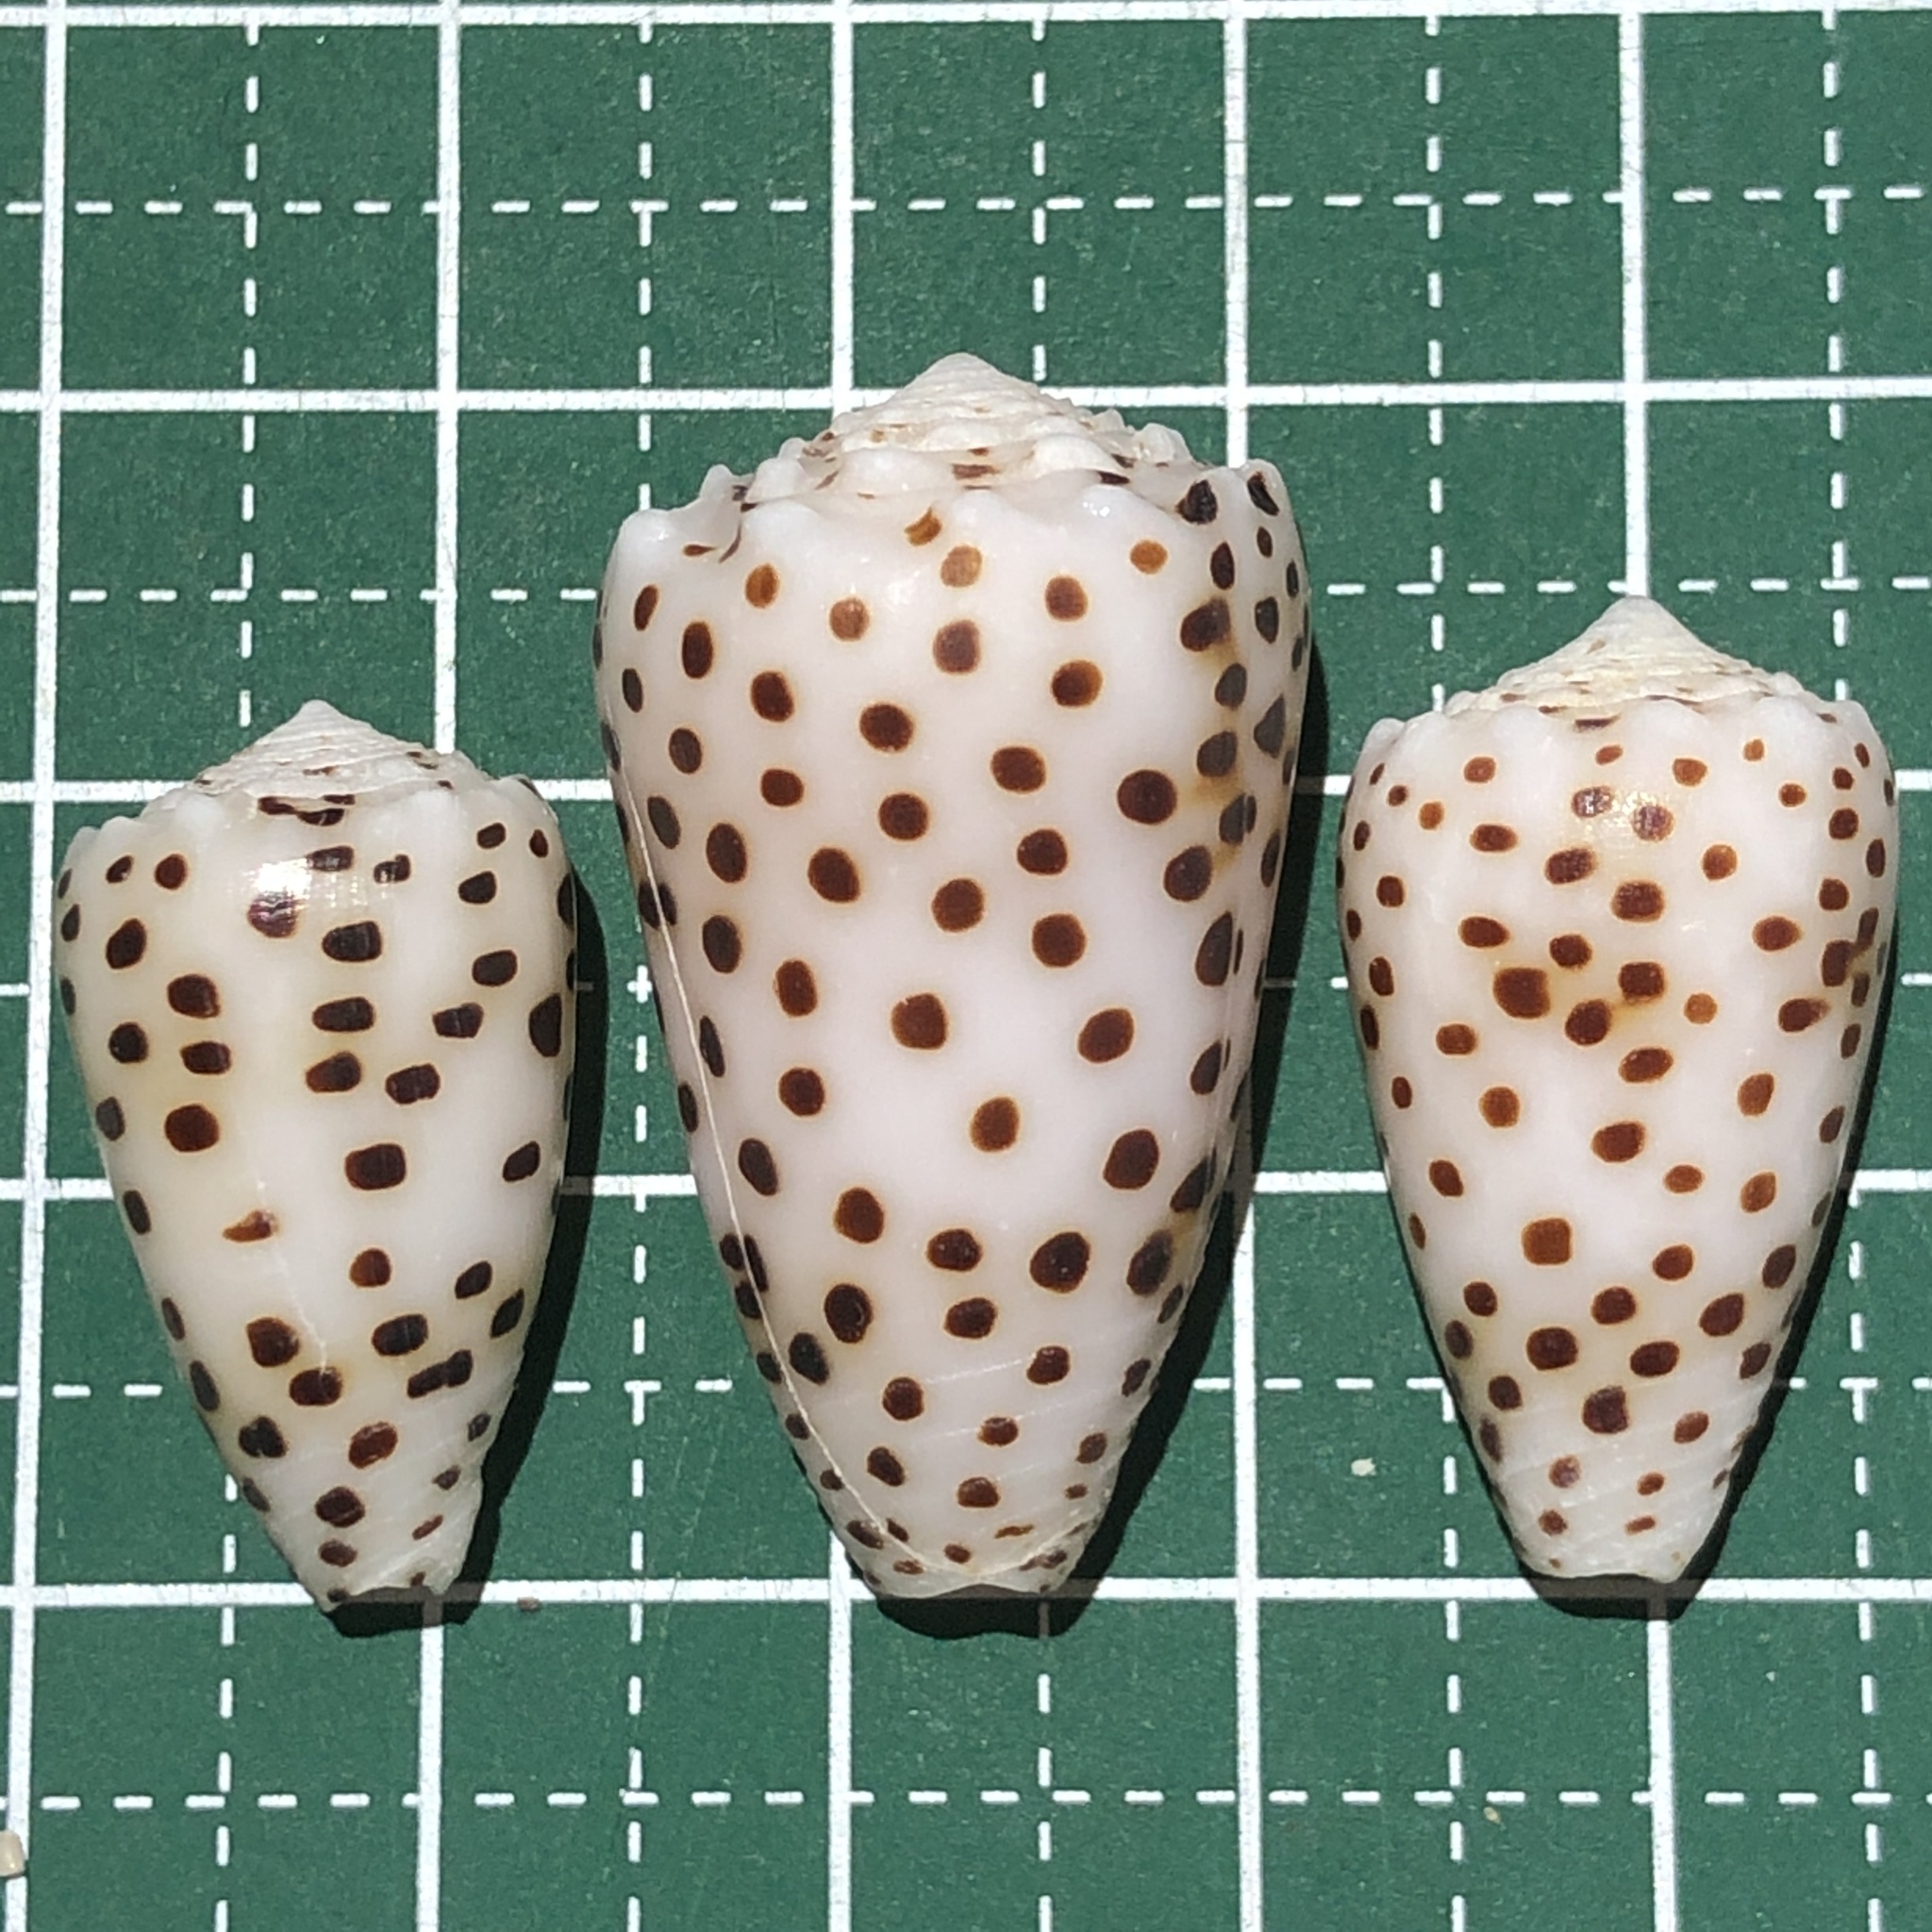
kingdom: Animalia
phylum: Mollusca
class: Gastropoda
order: Neogastropoda
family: Conidae
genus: Conus
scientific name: Conus pulicarius
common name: Flea-bite cone
